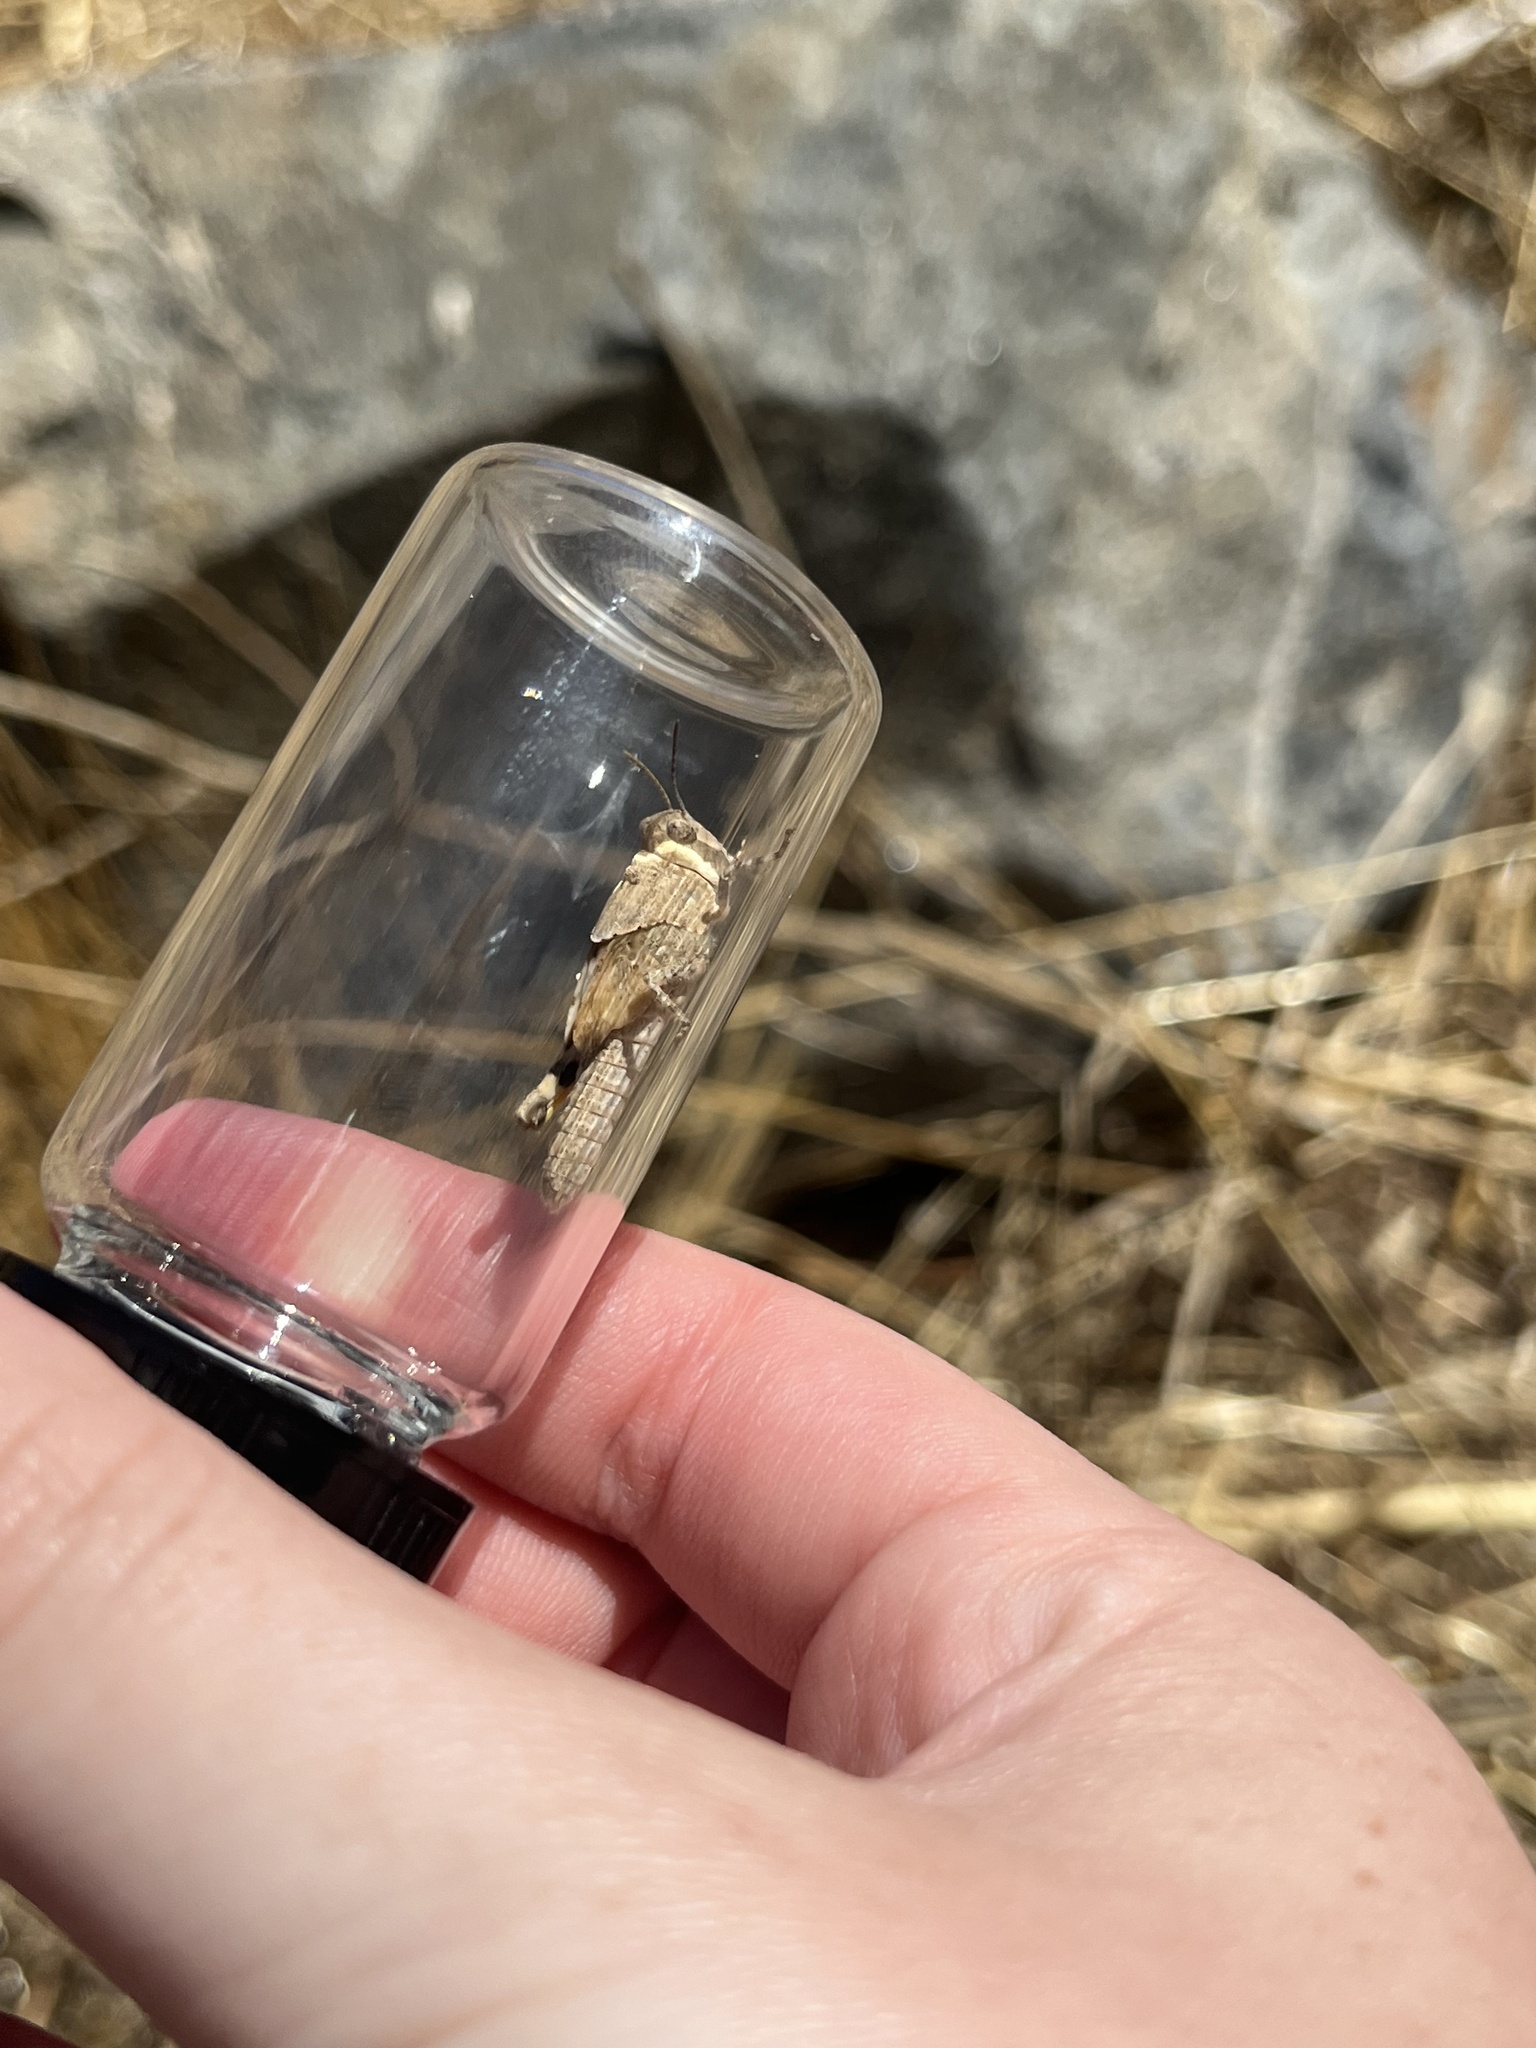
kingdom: Animalia
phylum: Arthropoda
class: Insecta
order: Orthoptera
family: Acrididae
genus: Trimerotropis
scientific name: Trimerotropis pallidipennis
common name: Pallid-winged grasshopper
